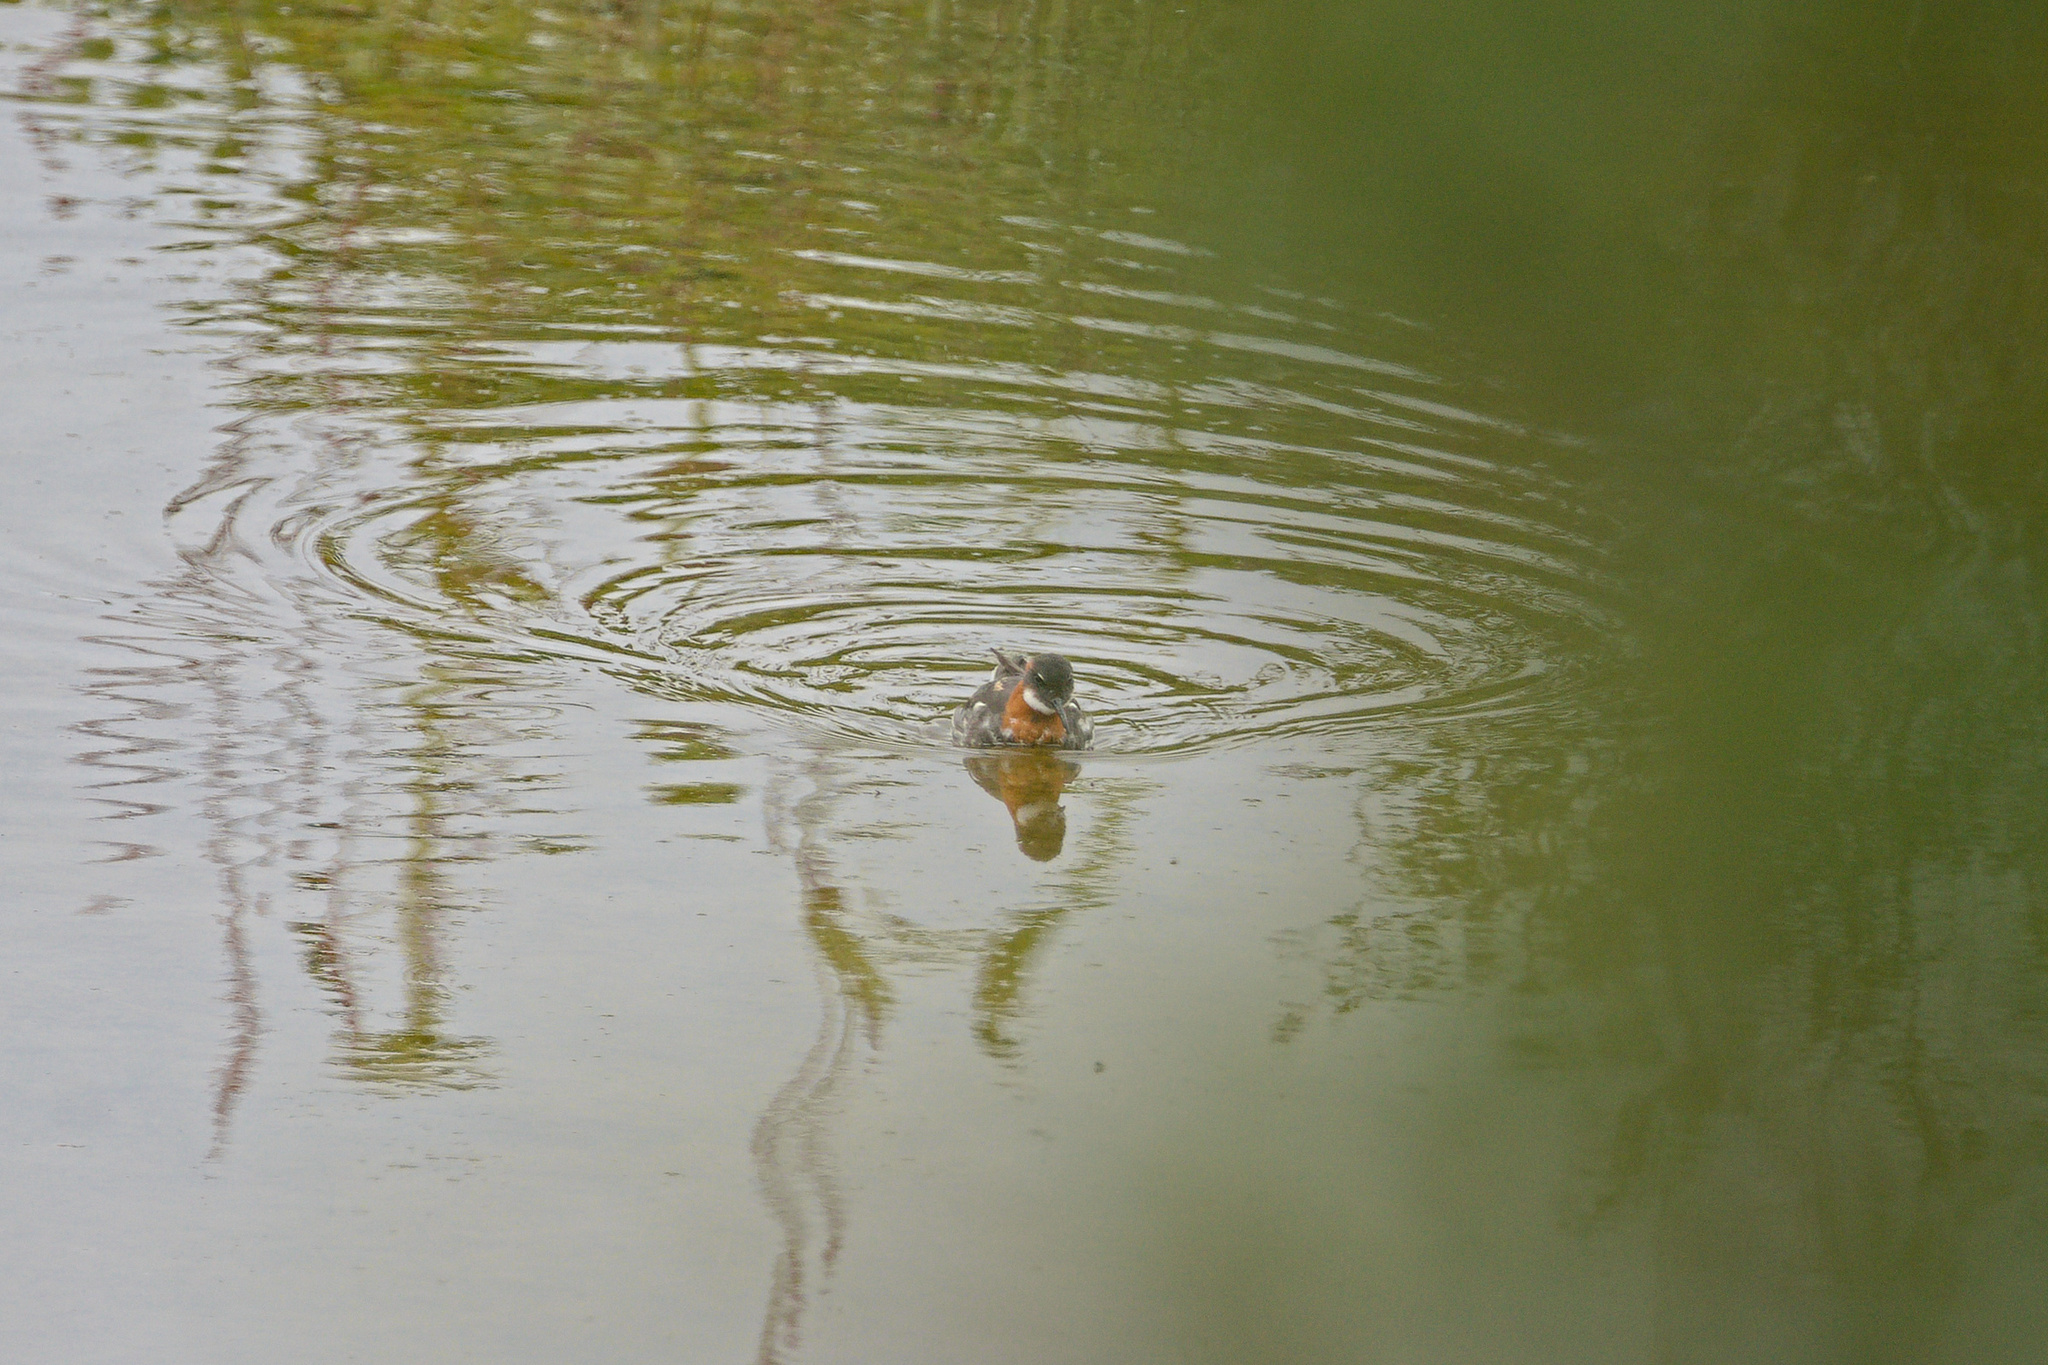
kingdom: Animalia
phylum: Chordata
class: Aves
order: Charadriiformes
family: Scolopacidae
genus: Phalaropus
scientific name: Phalaropus lobatus
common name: Red-necked phalarope
